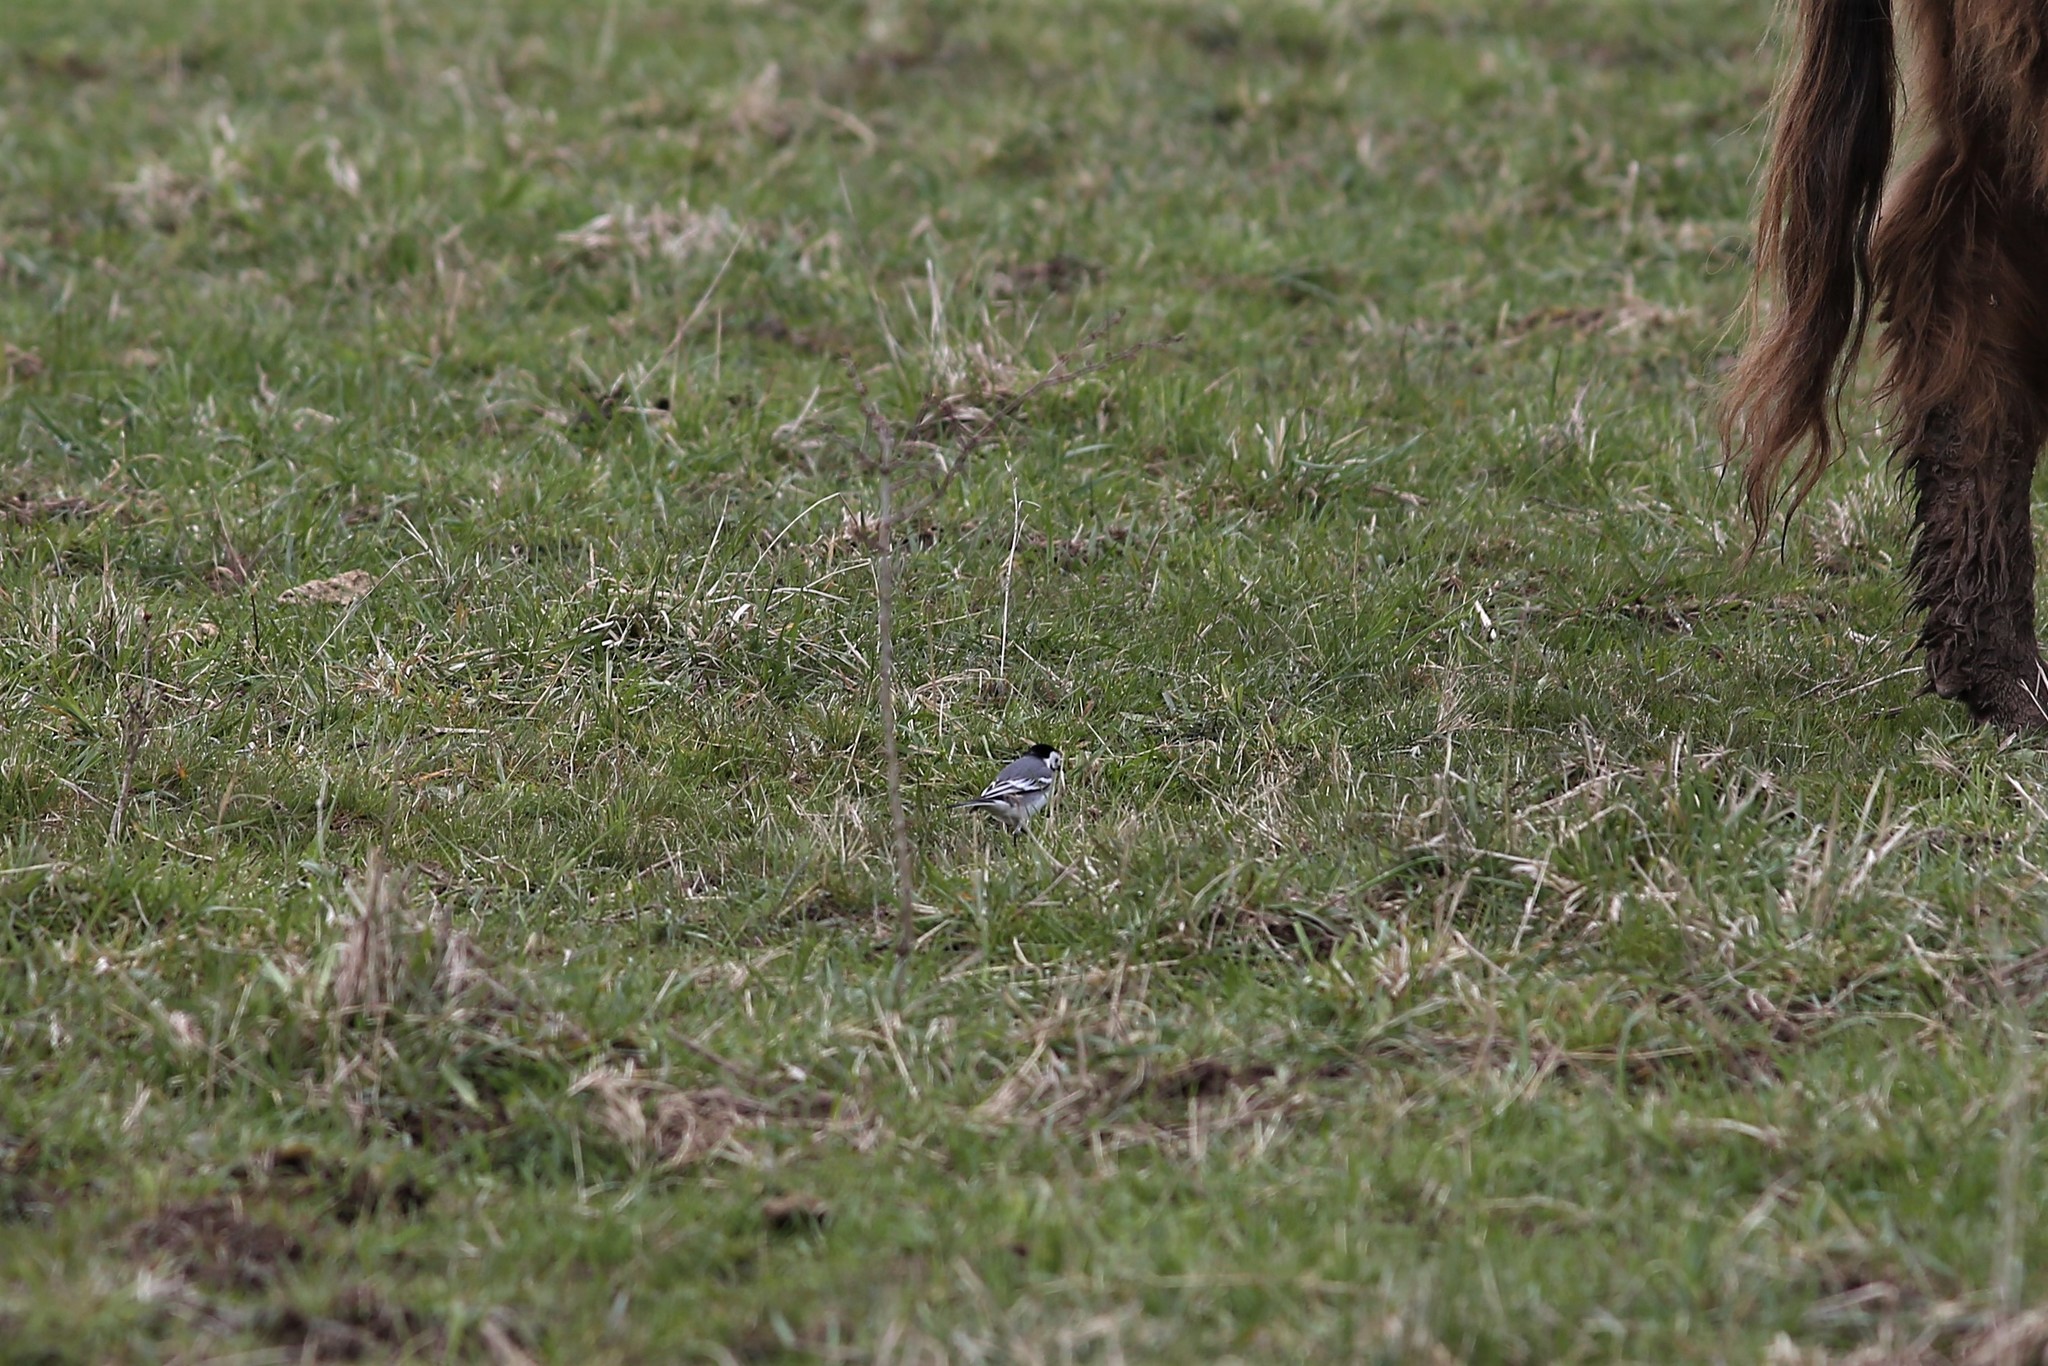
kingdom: Animalia
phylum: Chordata
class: Aves
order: Passeriformes
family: Motacillidae
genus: Motacilla
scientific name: Motacilla alba
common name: White wagtail
